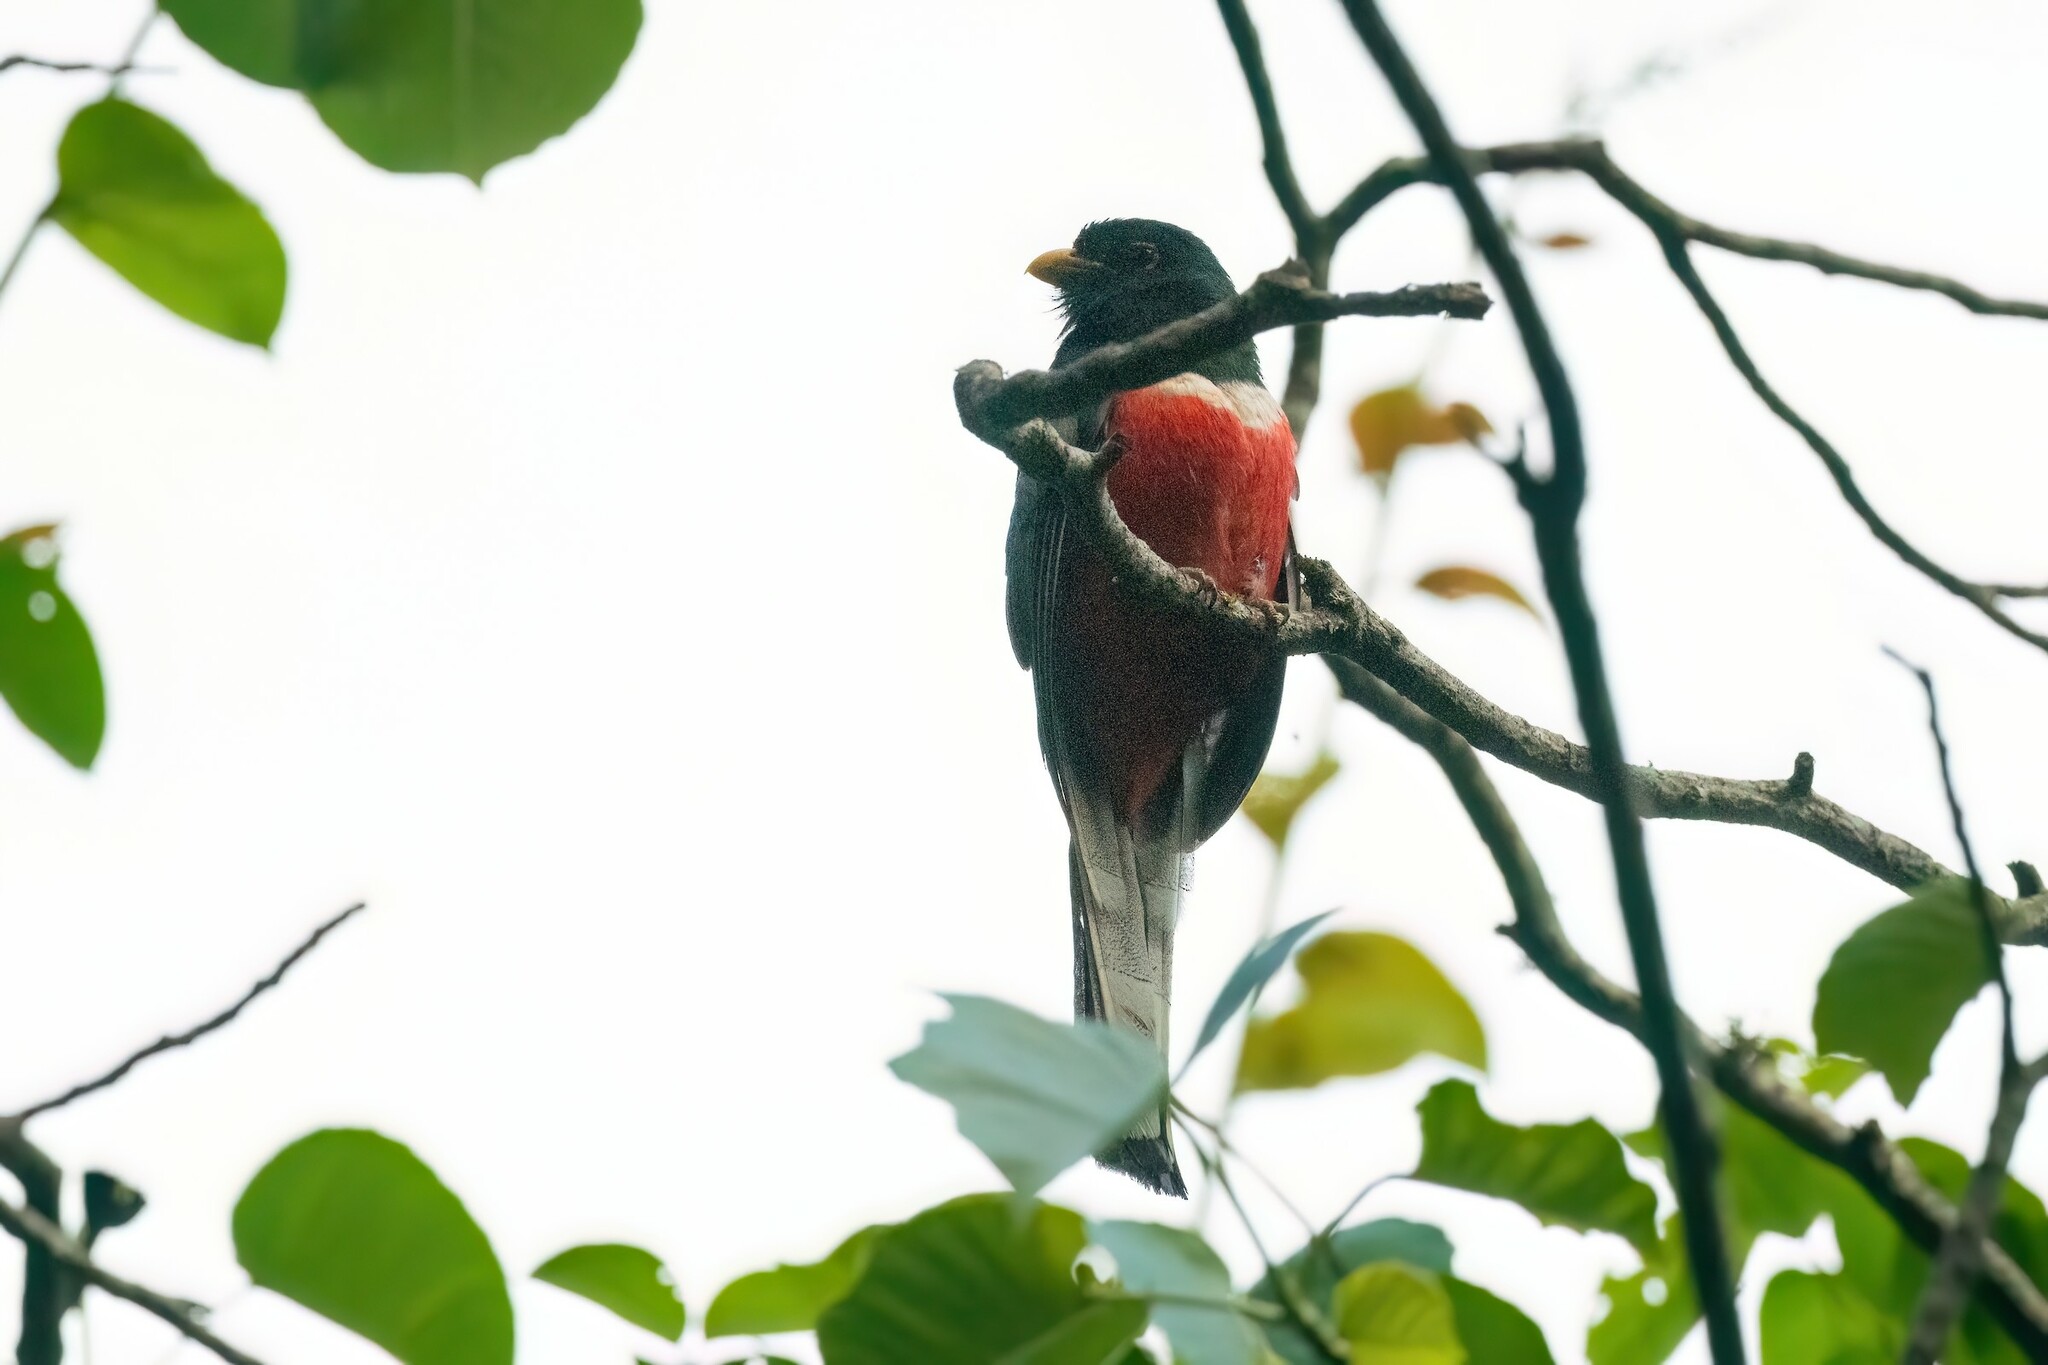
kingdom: Animalia
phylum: Chordata
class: Aves
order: Trogoniformes
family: Trogonidae
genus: Trogon
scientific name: Trogon elegans
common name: Elegant trogon
